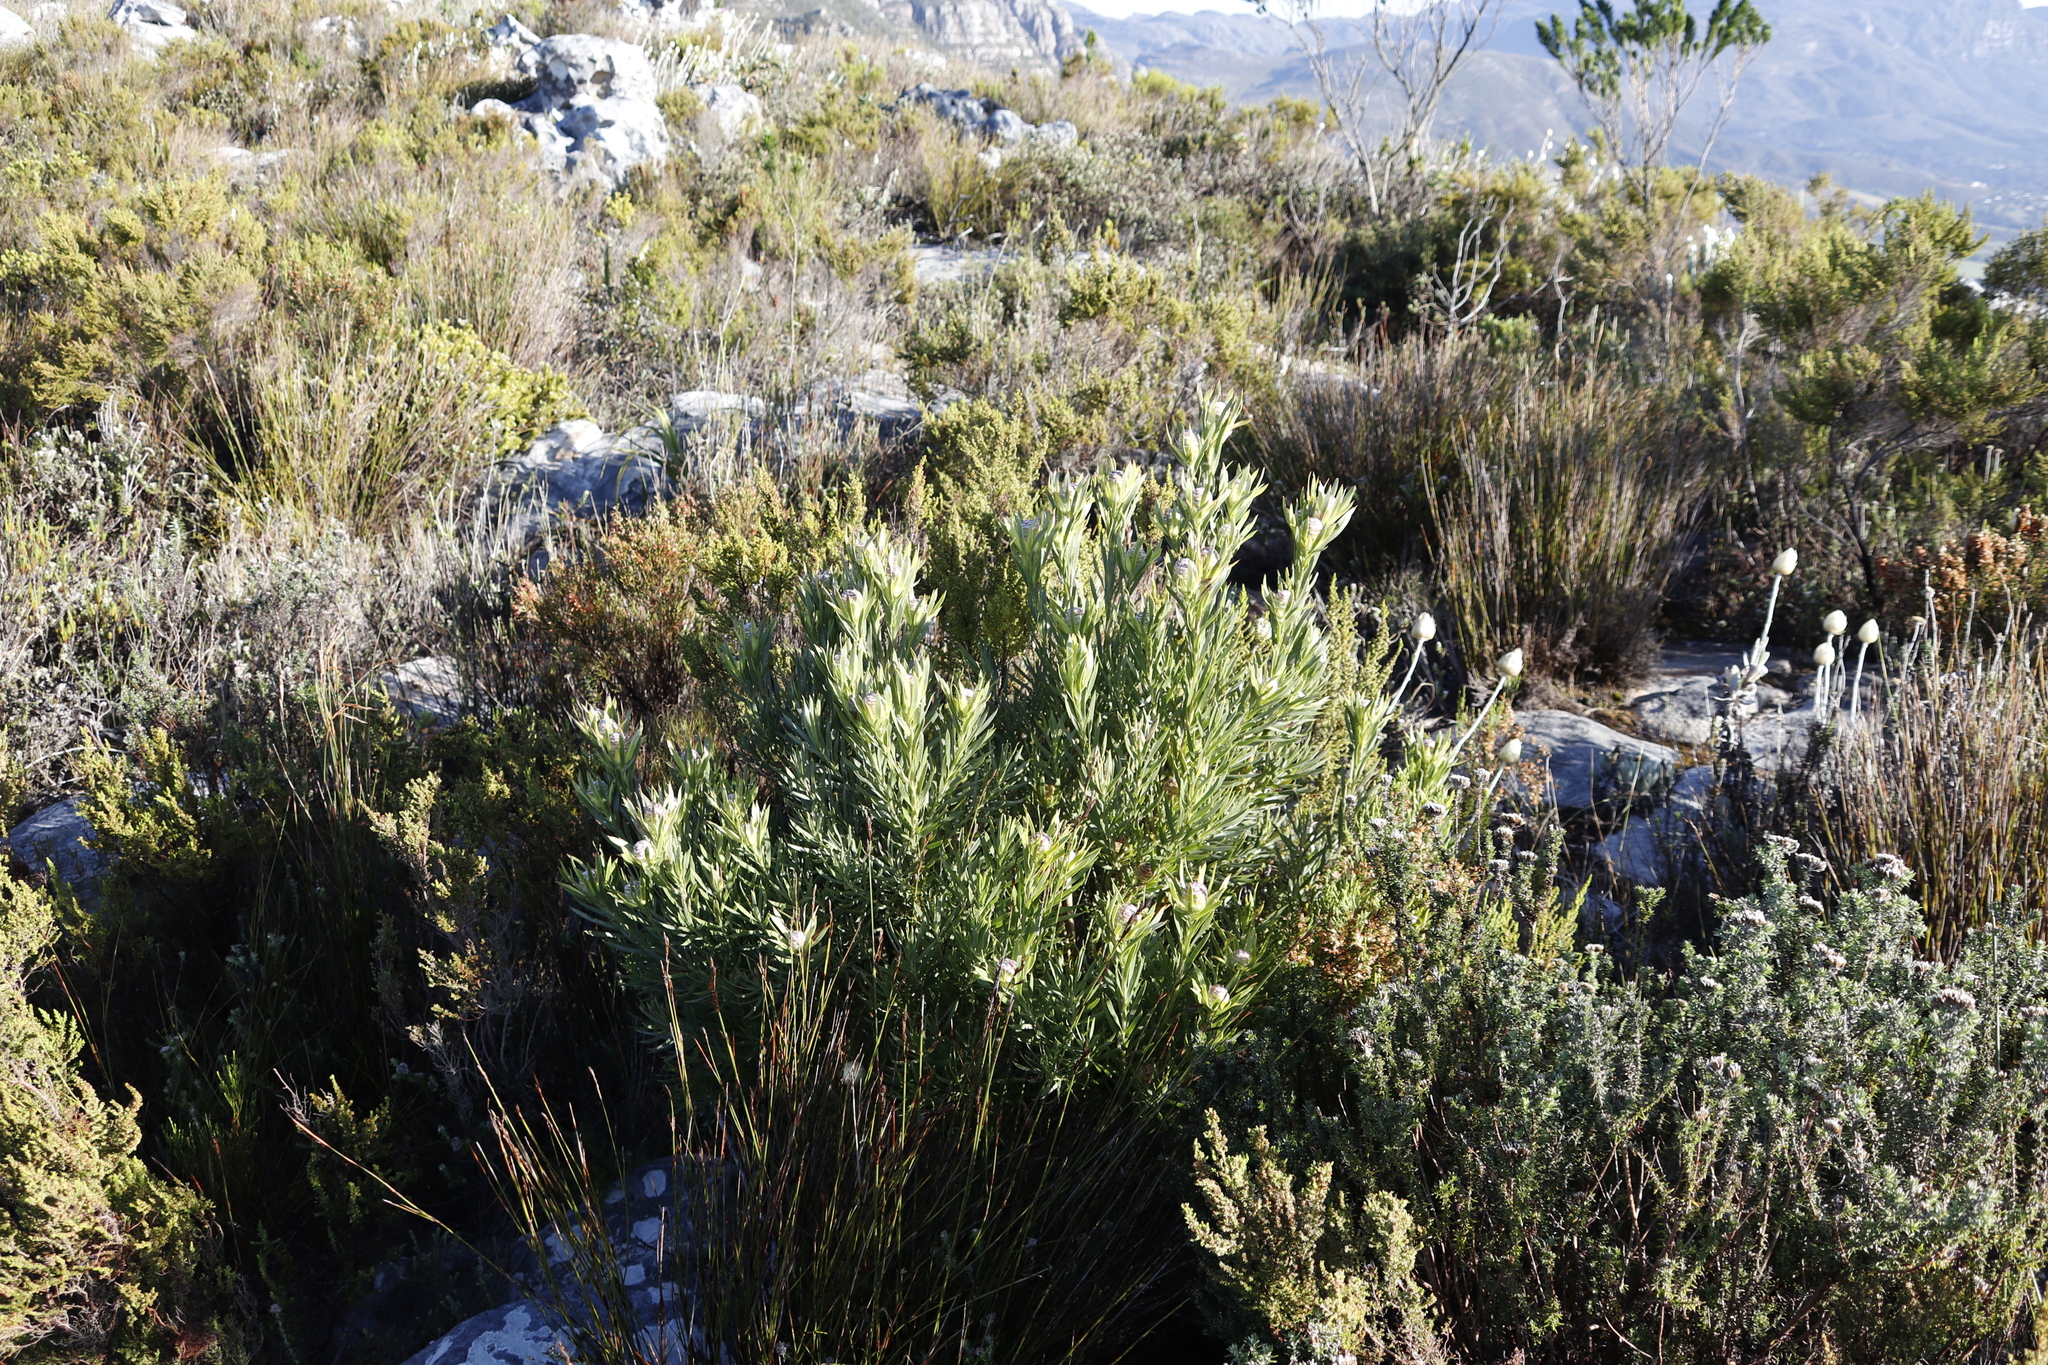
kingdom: Plantae
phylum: Tracheophyta
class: Magnoliopsida
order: Proteales
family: Proteaceae
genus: Leucadendron
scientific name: Leucadendron xanthoconus
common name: Sickle-leaf conebush
